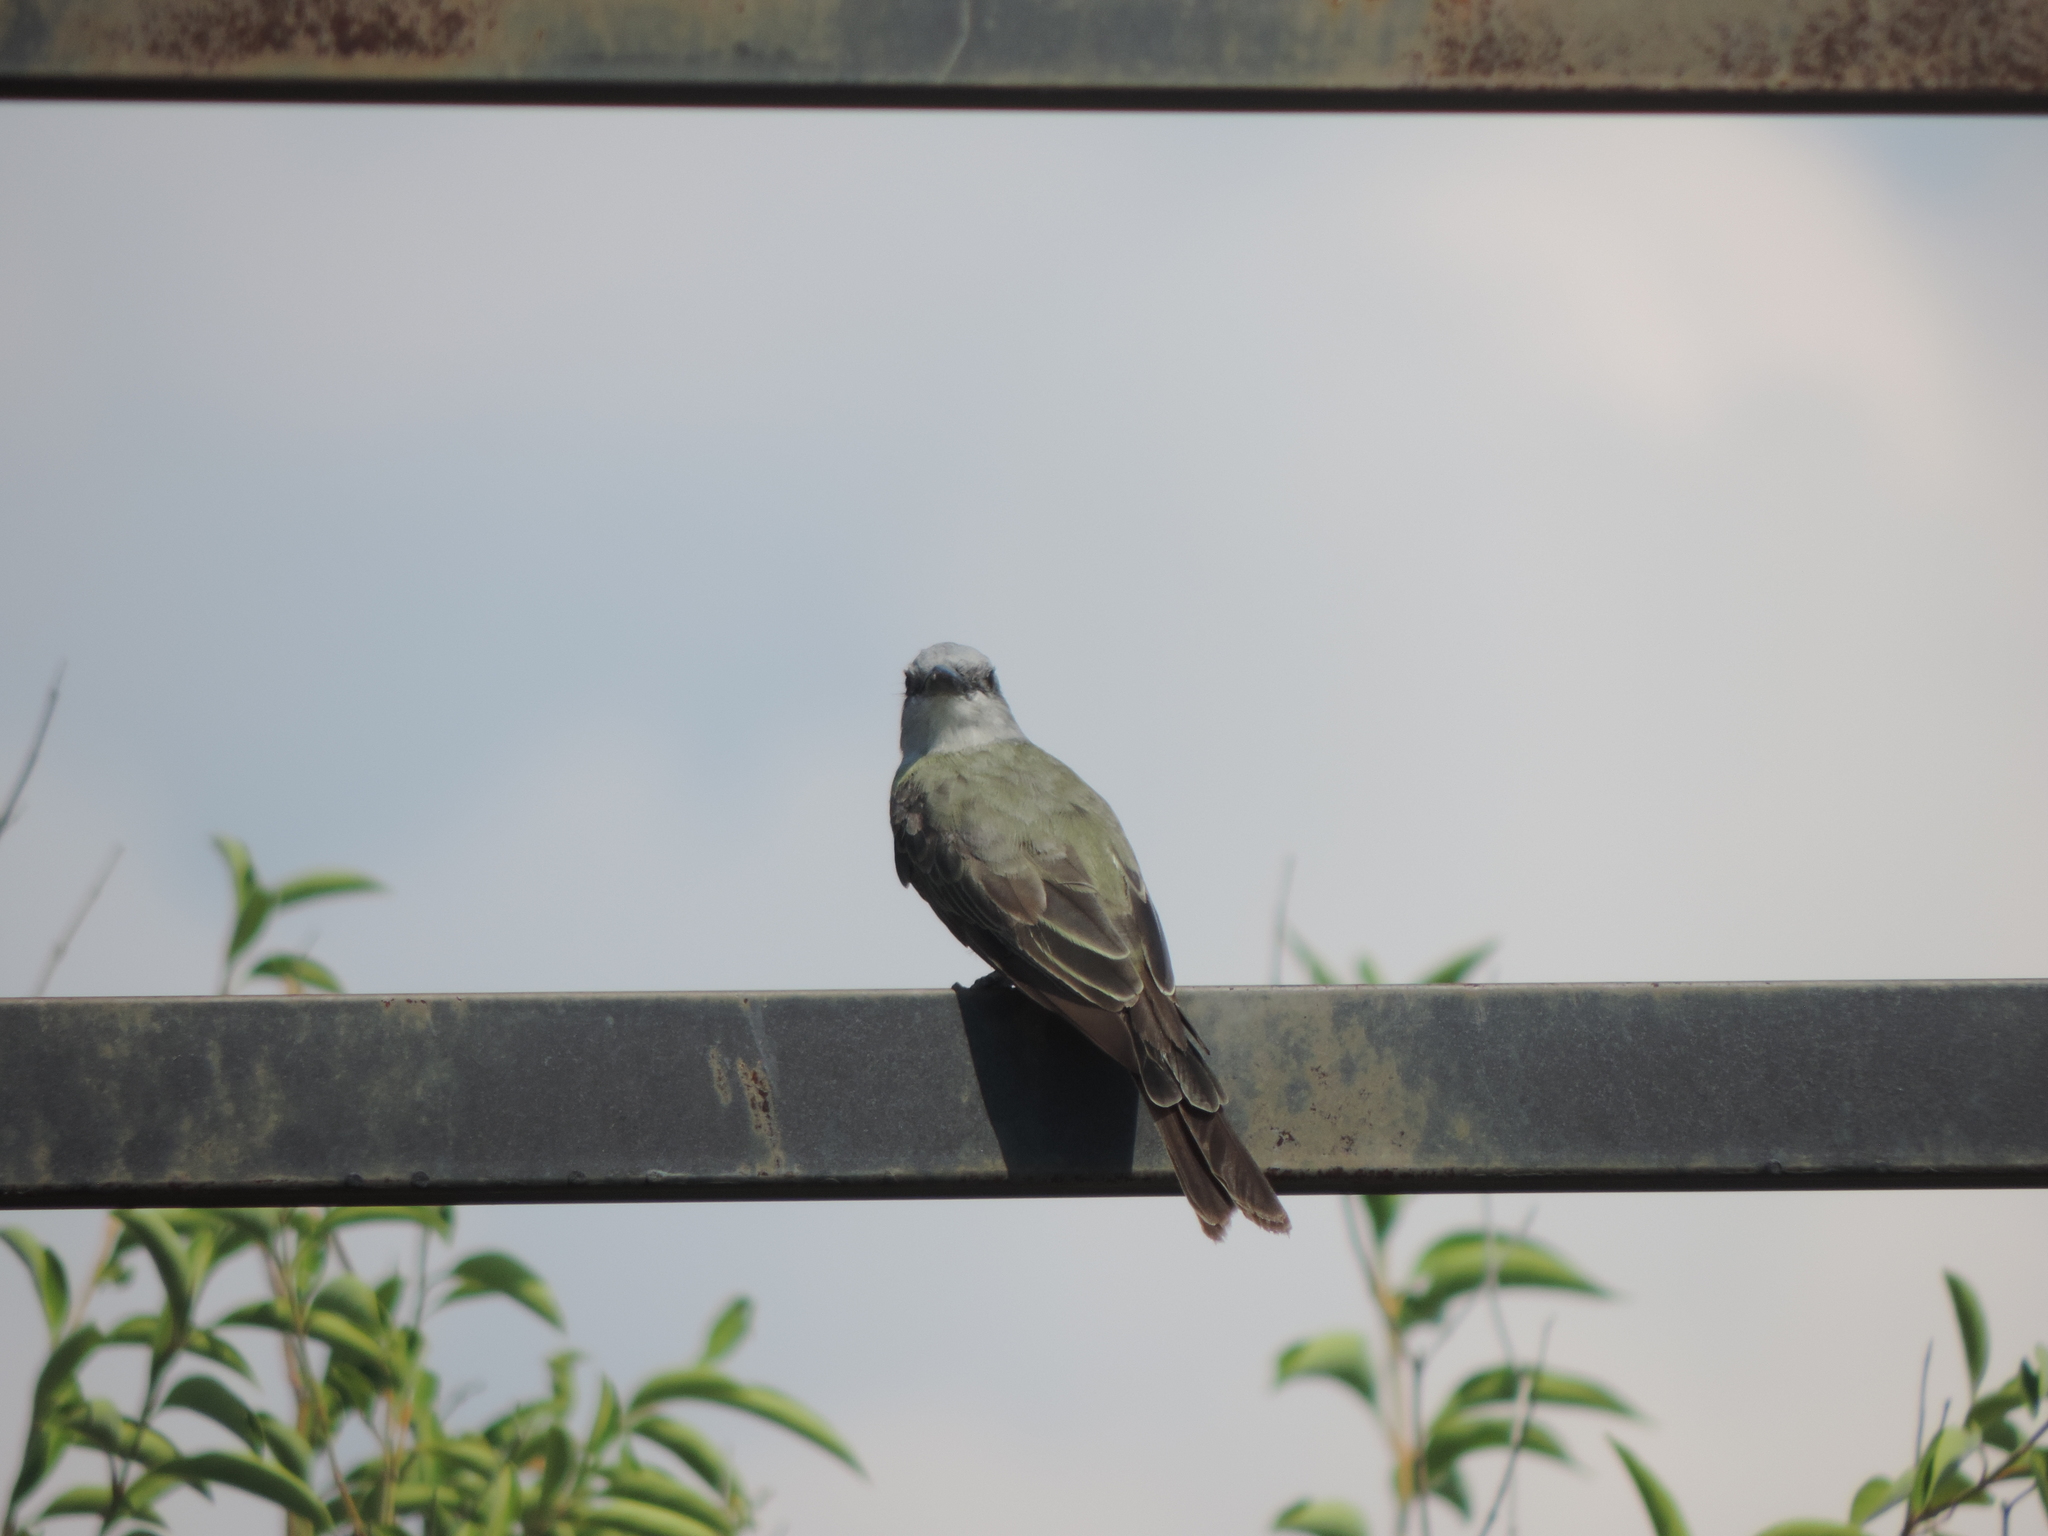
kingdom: Animalia
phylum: Chordata
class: Aves
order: Passeriformes
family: Tyrannidae
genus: Tyrannus
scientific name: Tyrannus melancholicus
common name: Tropical kingbird
